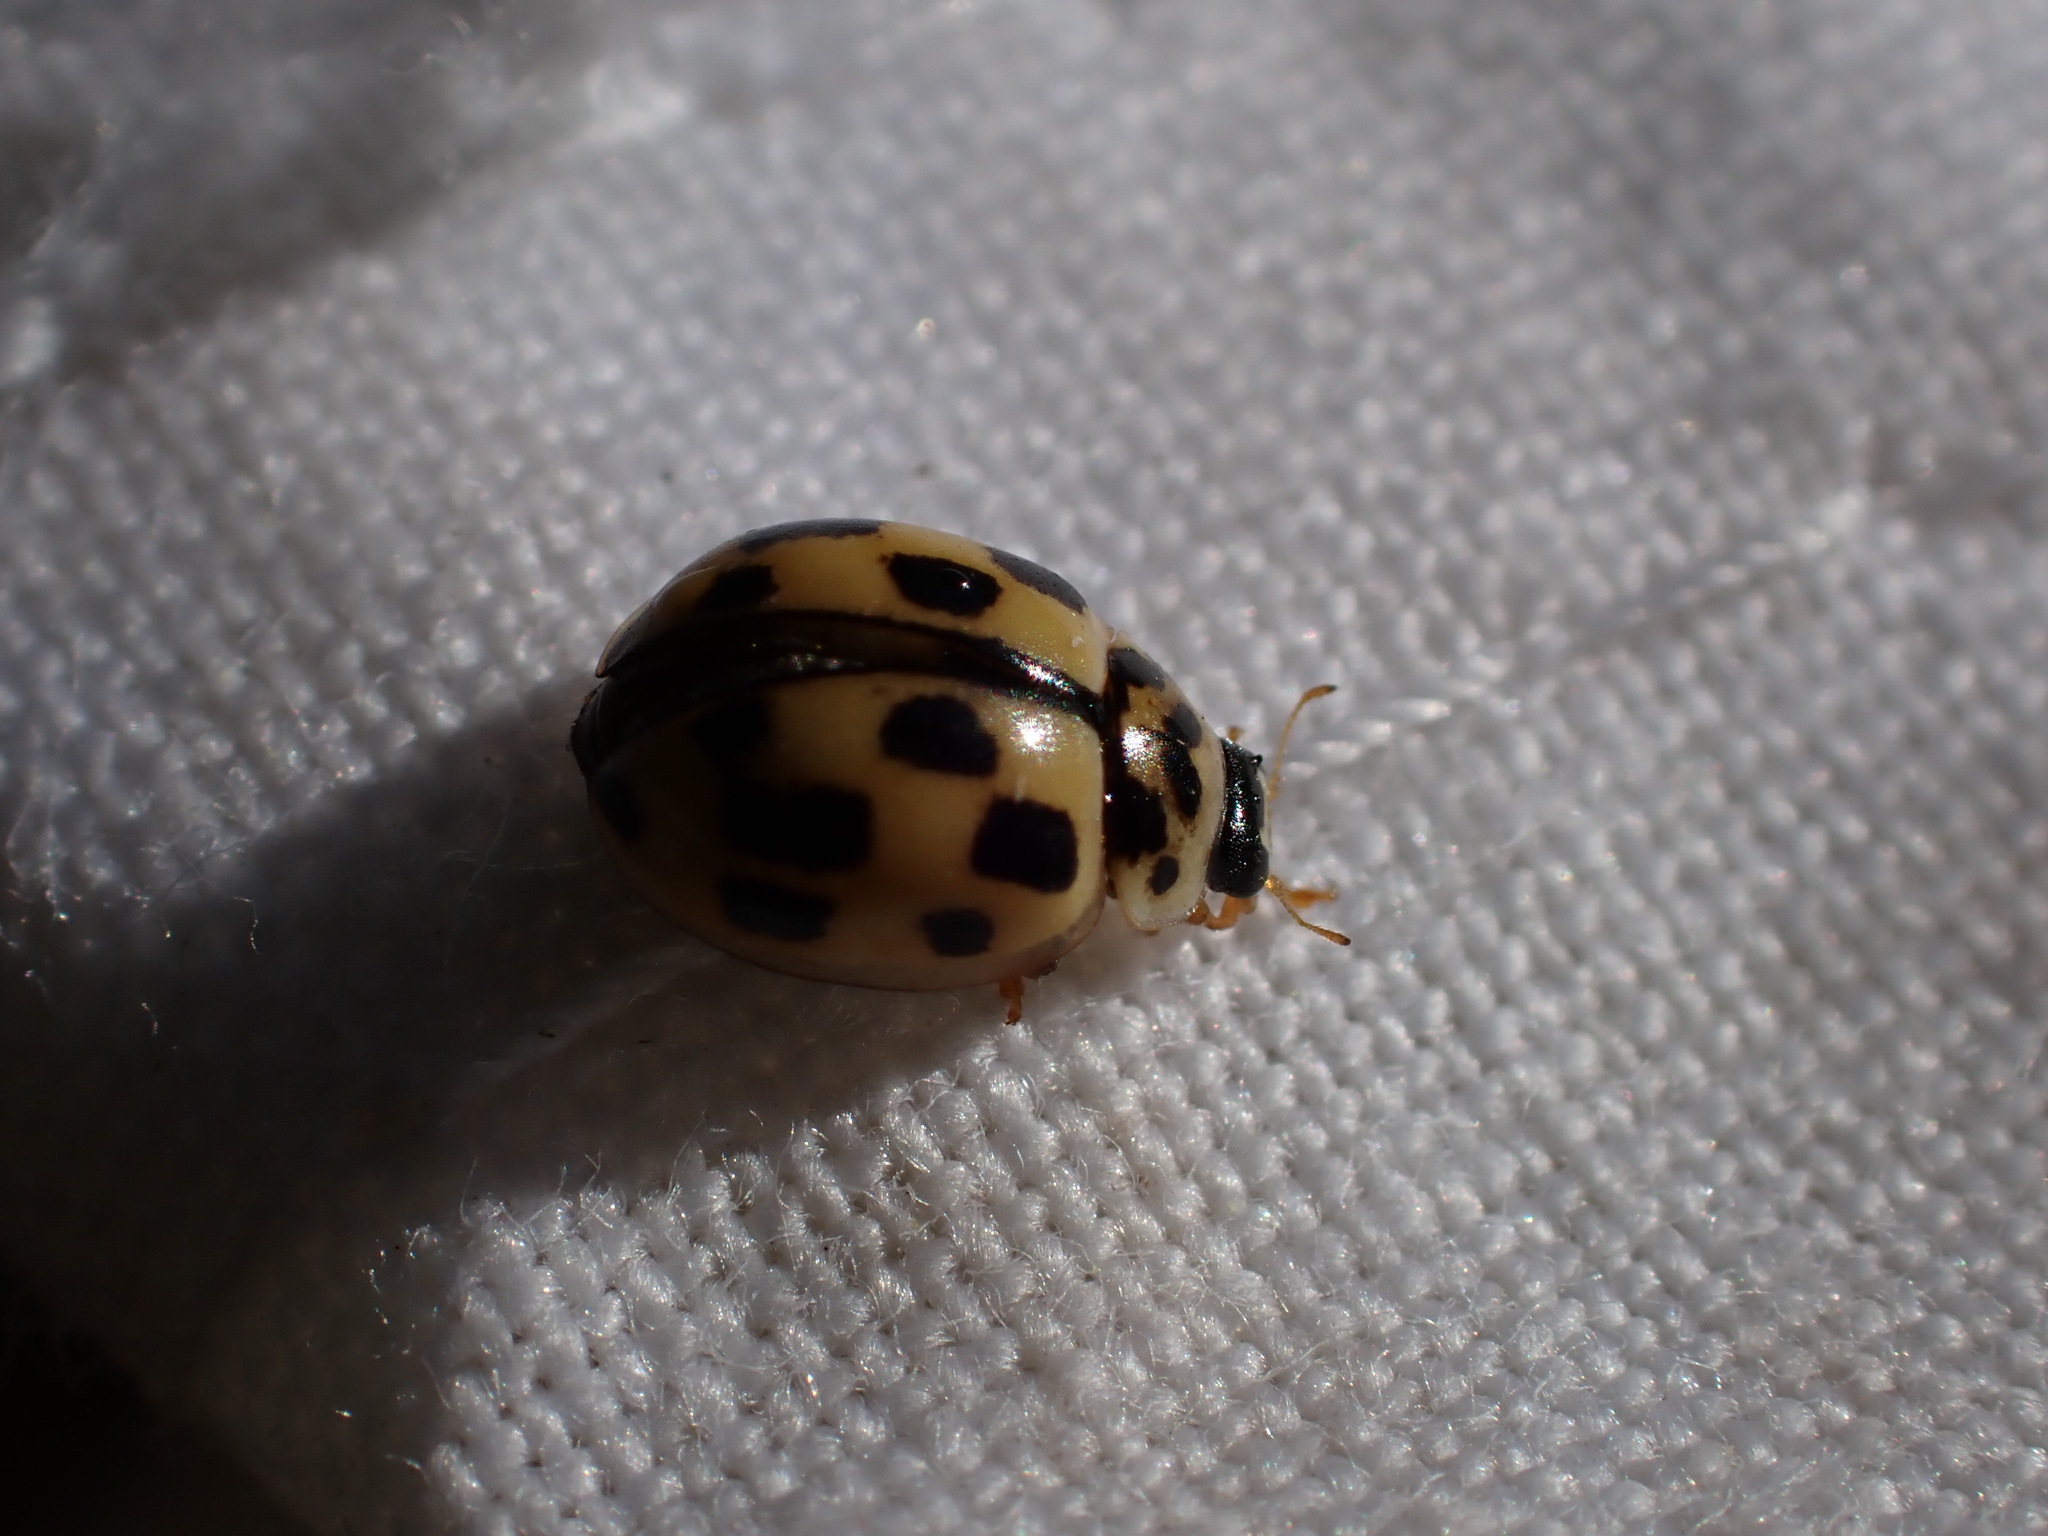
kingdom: Animalia
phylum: Arthropoda
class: Insecta
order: Coleoptera
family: Coccinellidae
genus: Propylaea
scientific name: Propylaea quatuordecimpunctata
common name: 14-spotted ladybird beetle
